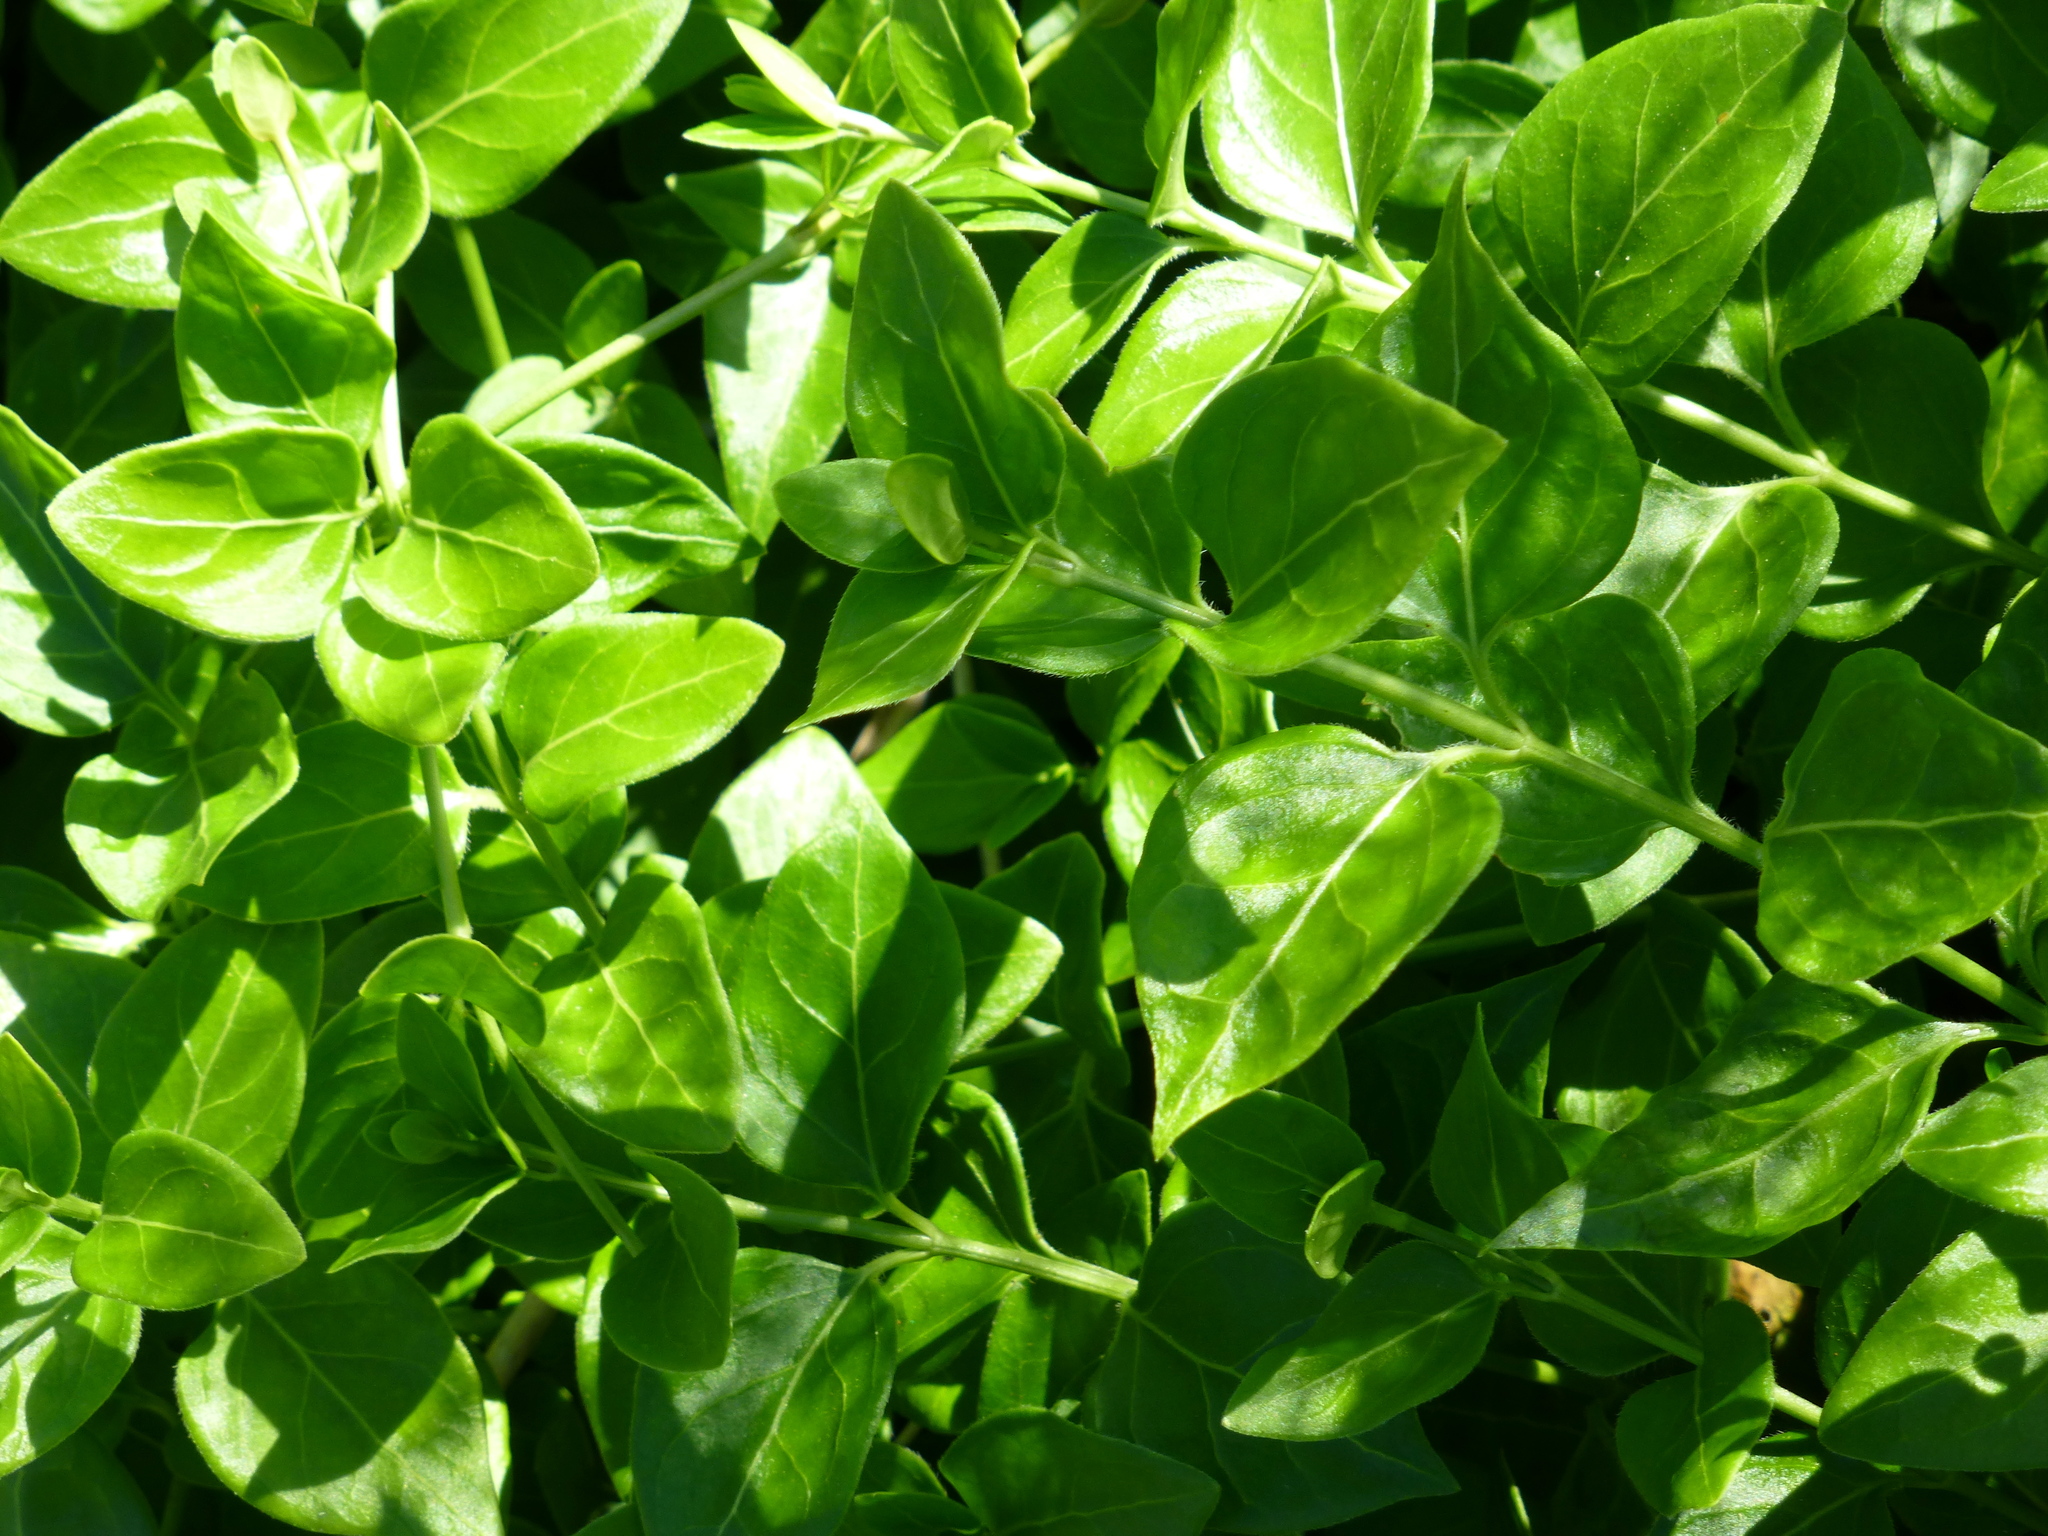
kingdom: Plantae
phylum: Tracheophyta
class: Magnoliopsida
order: Gentianales
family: Apocynaceae
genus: Vinca
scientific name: Vinca major
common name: Greater periwinkle
